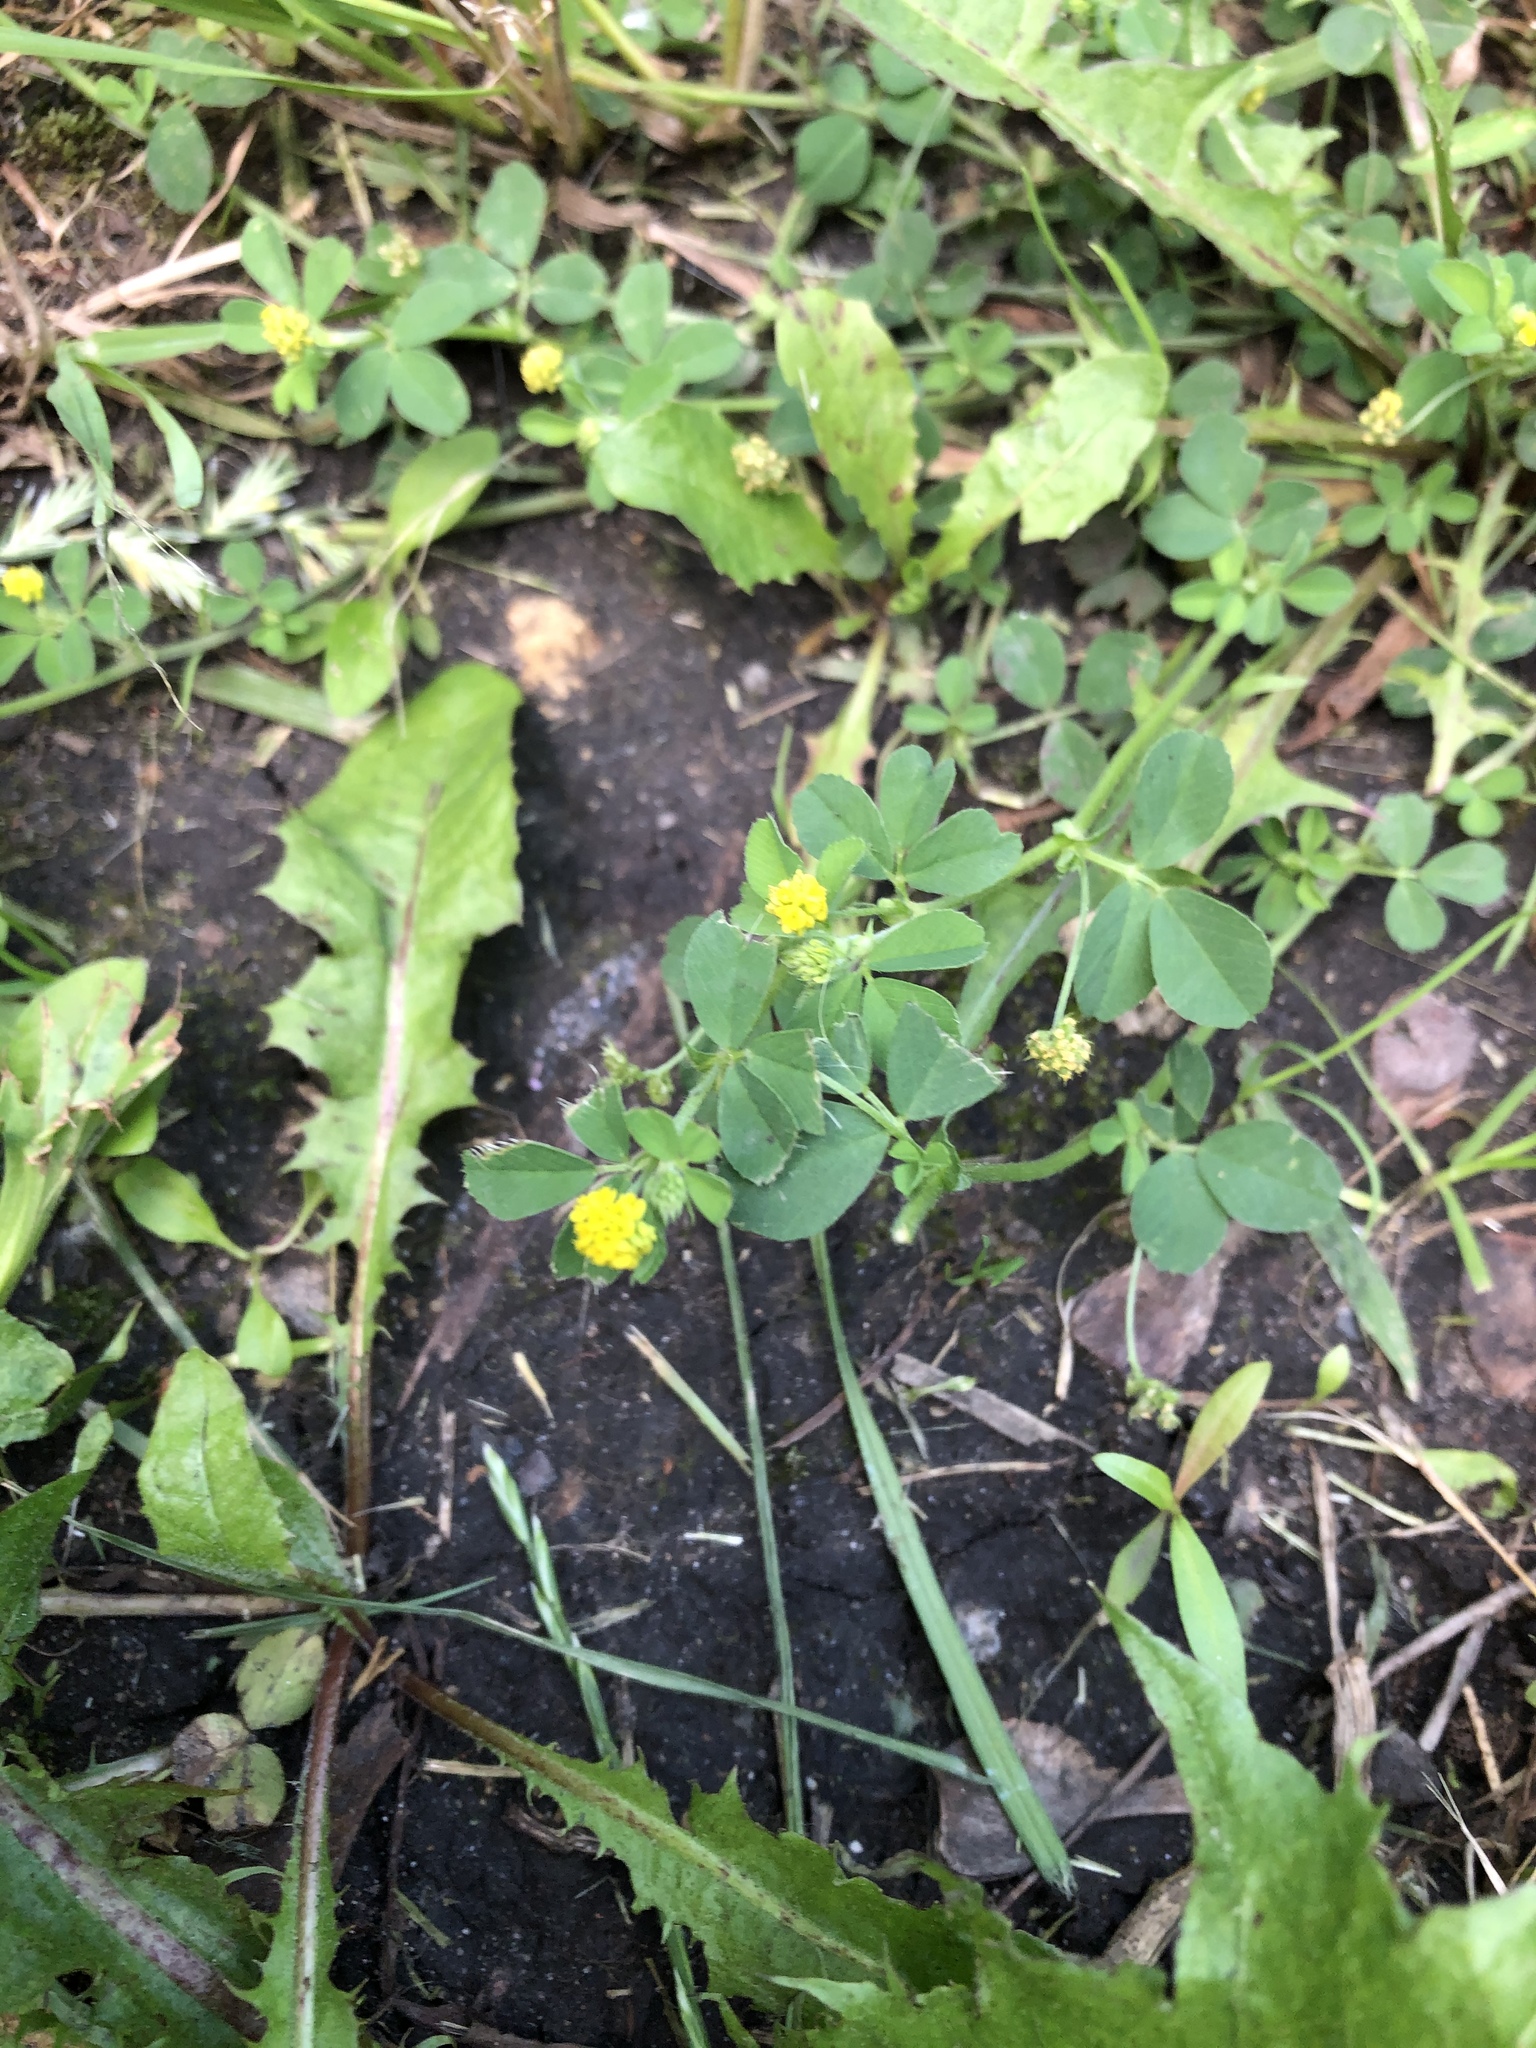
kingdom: Plantae
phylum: Tracheophyta
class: Magnoliopsida
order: Fabales
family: Fabaceae
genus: Medicago
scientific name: Medicago lupulina
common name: Black medick
